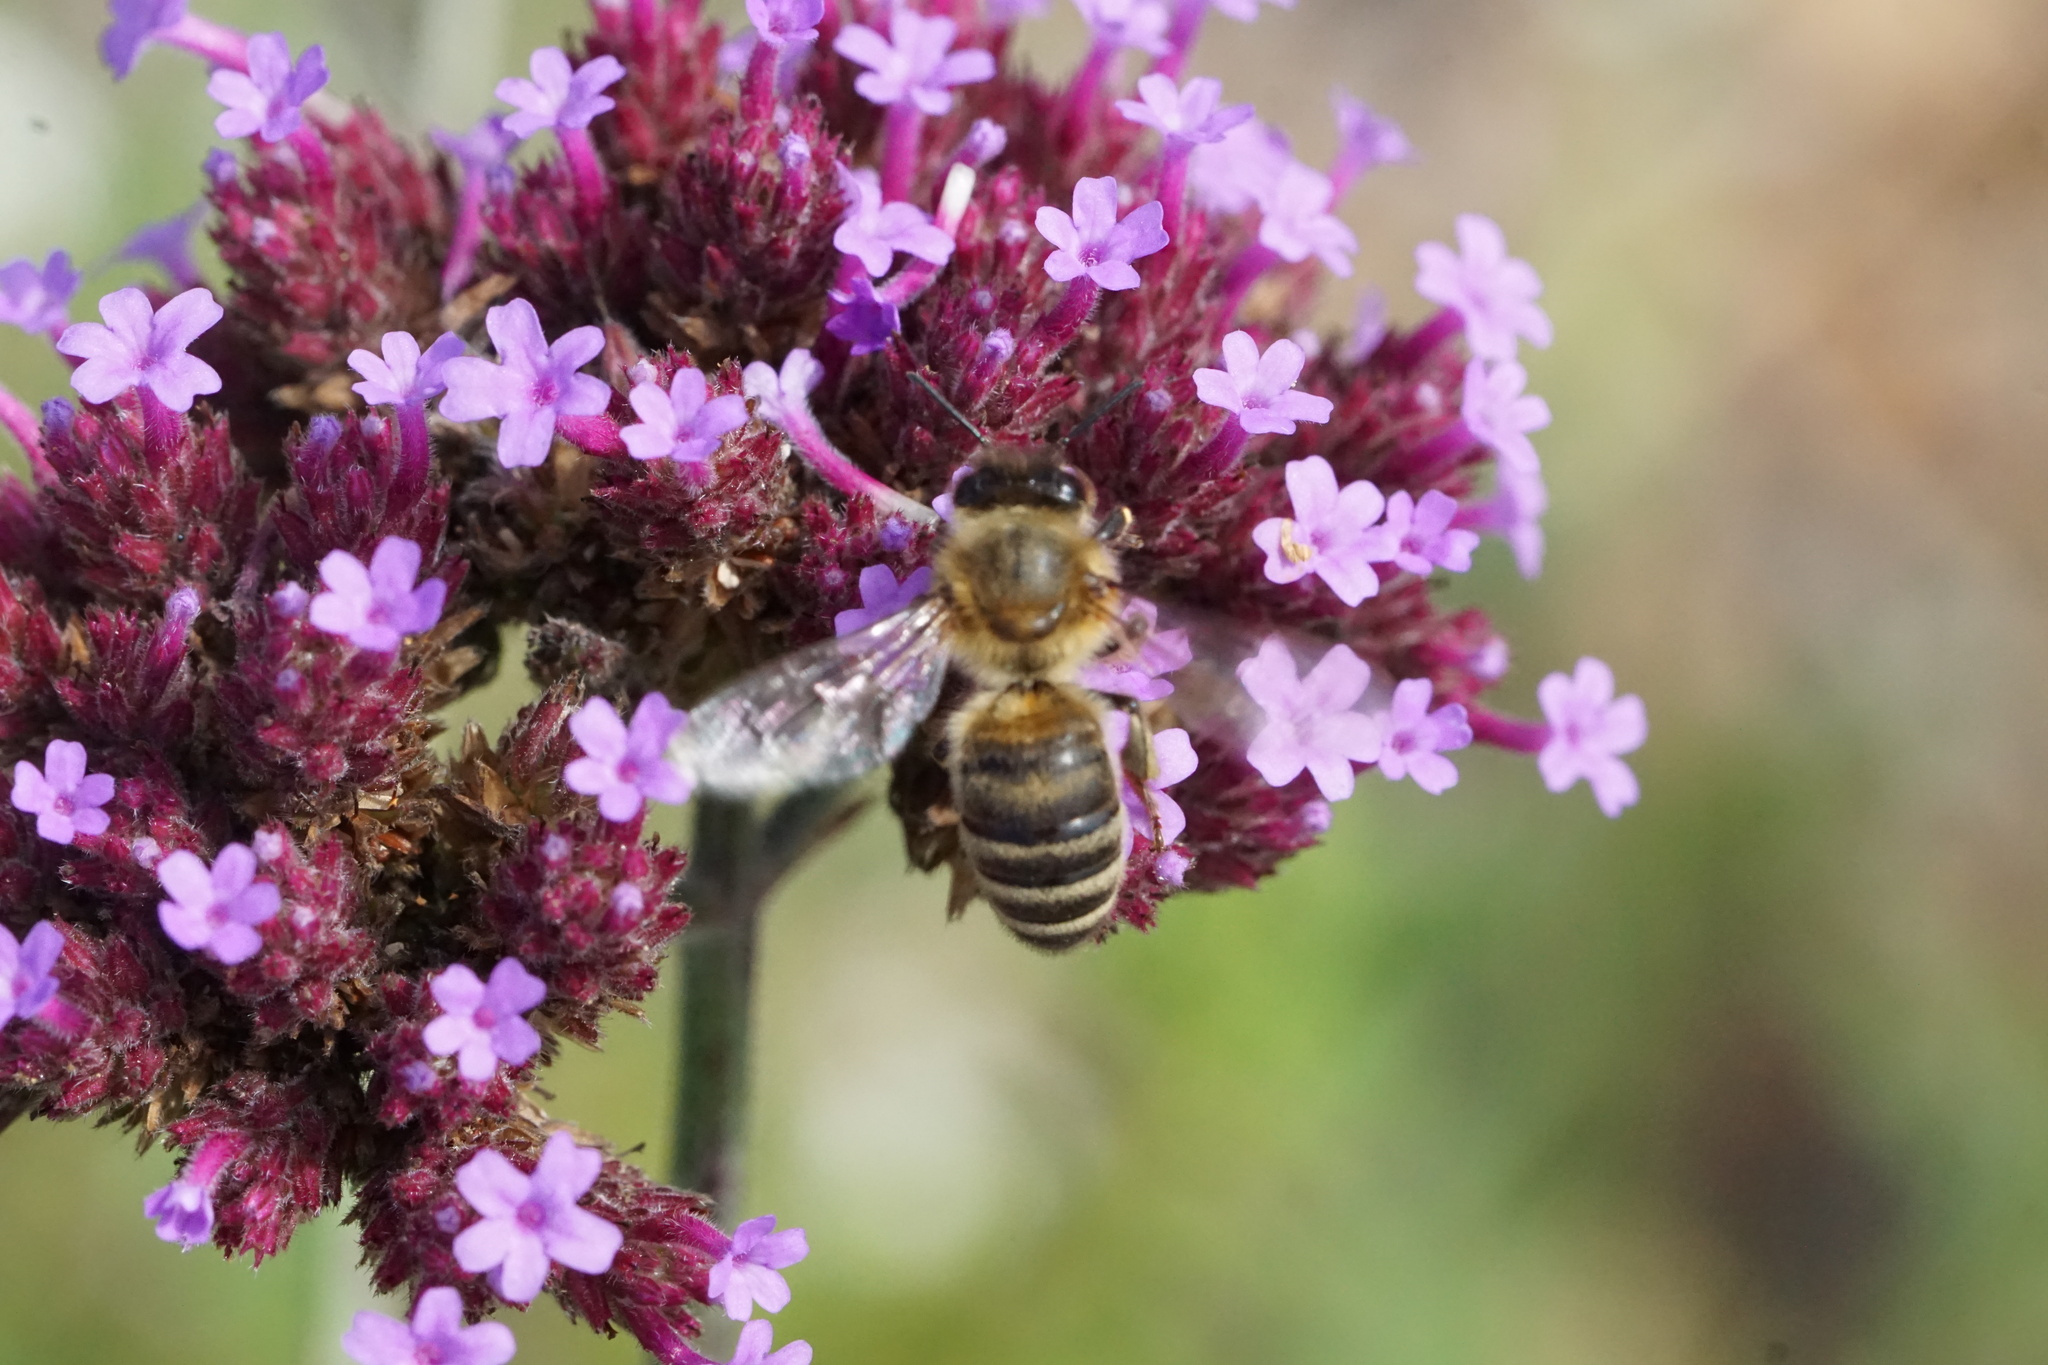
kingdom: Animalia
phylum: Arthropoda
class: Insecta
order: Hymenoptera
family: Apidae
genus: Apis
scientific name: Apis mellifera
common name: Honey bee
